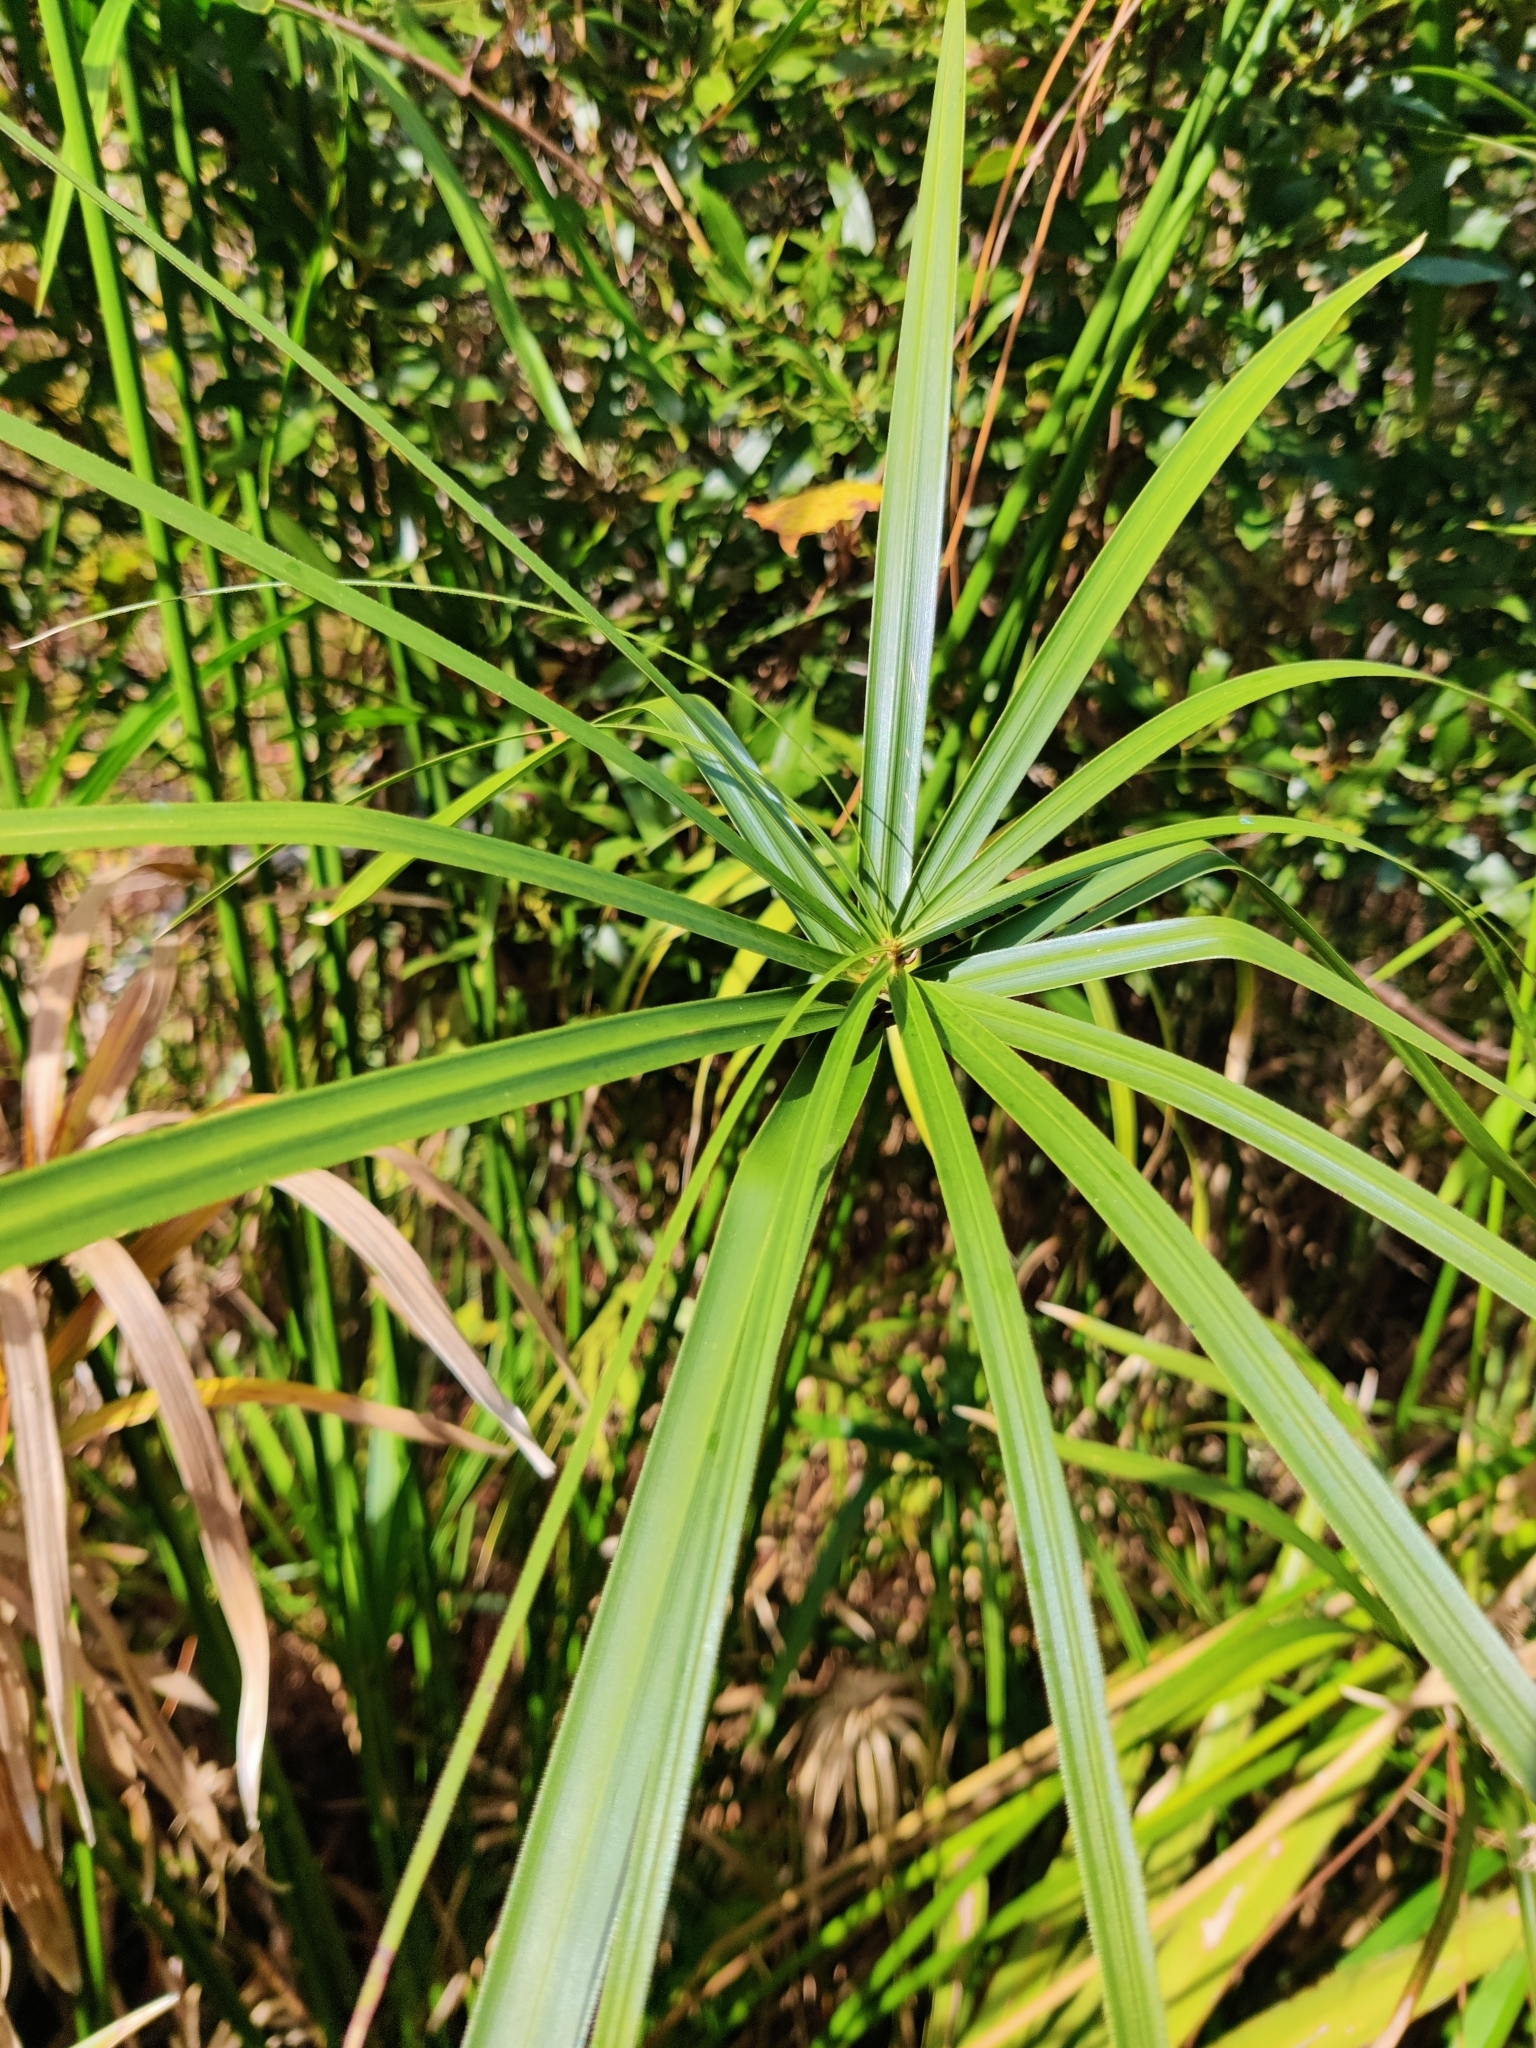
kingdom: Plantae
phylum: Tracheophyta
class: Liliopsida
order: Poales
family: Cyperaceae
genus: Cyperus
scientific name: Cyperus alternifolius
